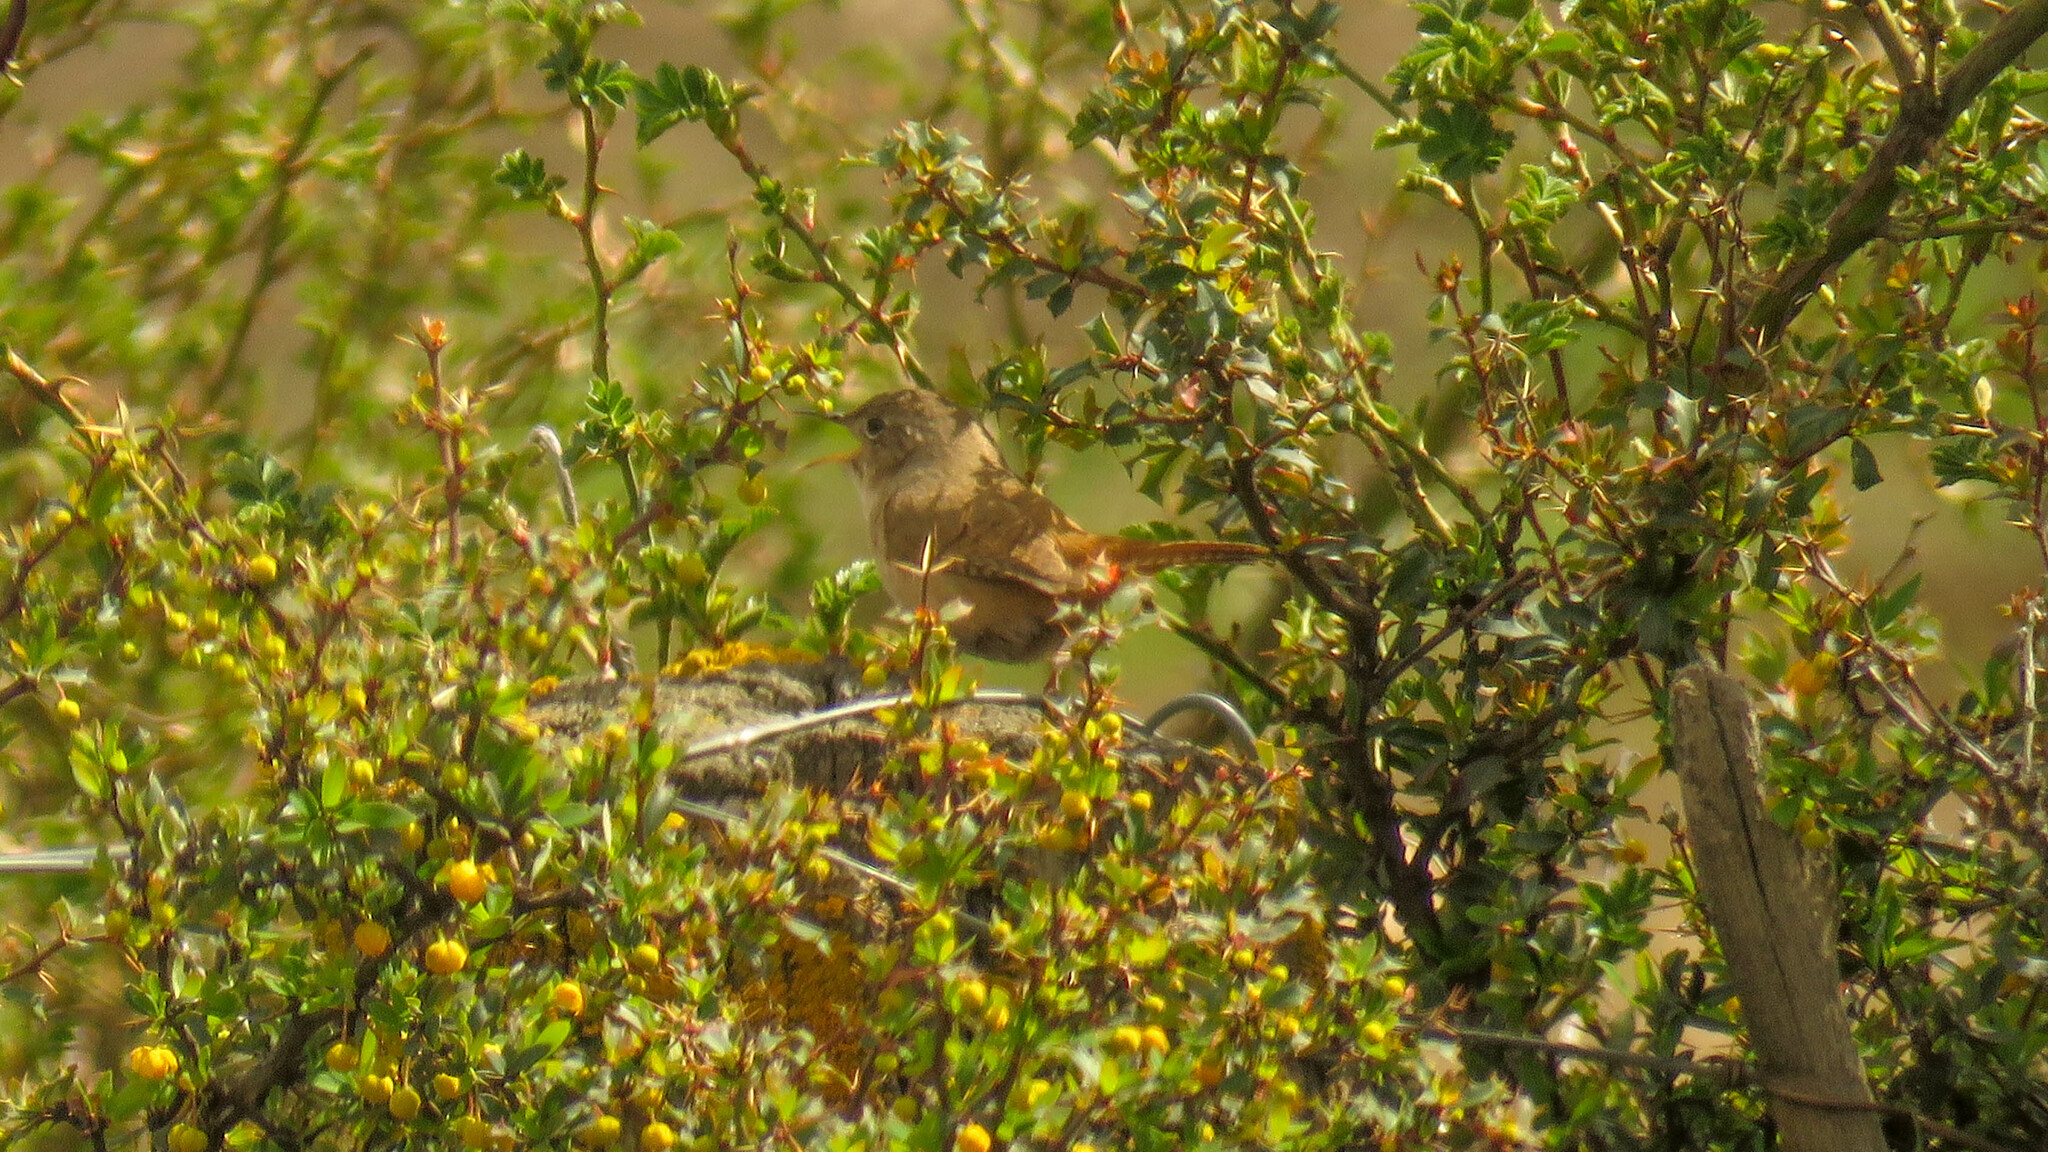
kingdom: Animalia
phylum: Chordata
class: Aves
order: Passeriformes
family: Troglodytidae
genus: Troglodytes
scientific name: Troglodytes aedon
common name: House wren
